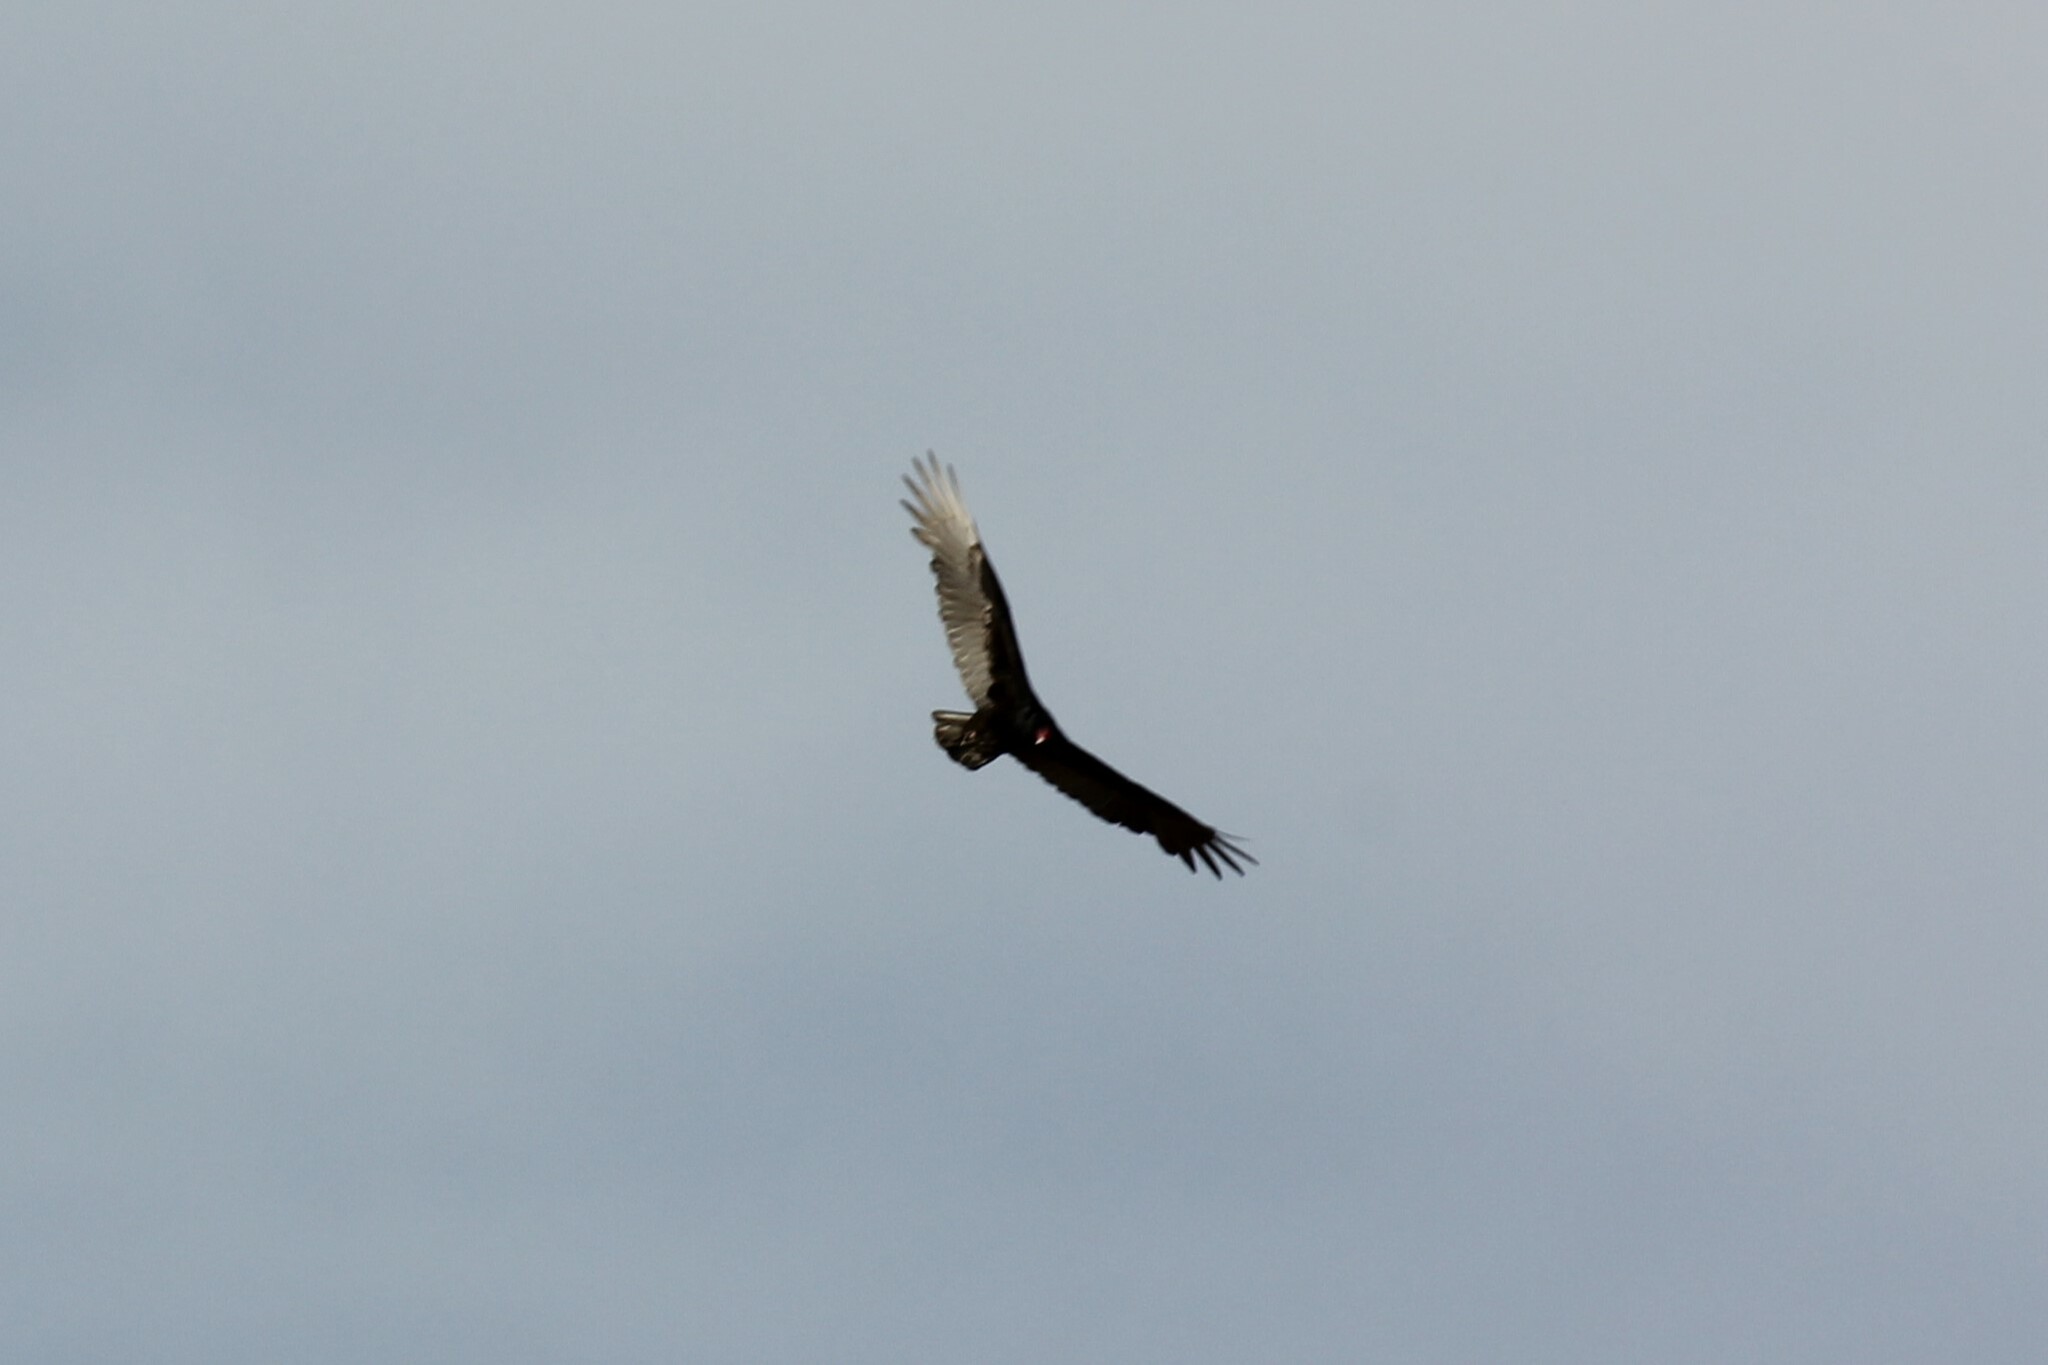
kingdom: Animalia
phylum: Chordata
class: Aves
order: Accipitriformes
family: Cathartidae
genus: Cathartes
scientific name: Cathartes aura
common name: Turkey vulture
